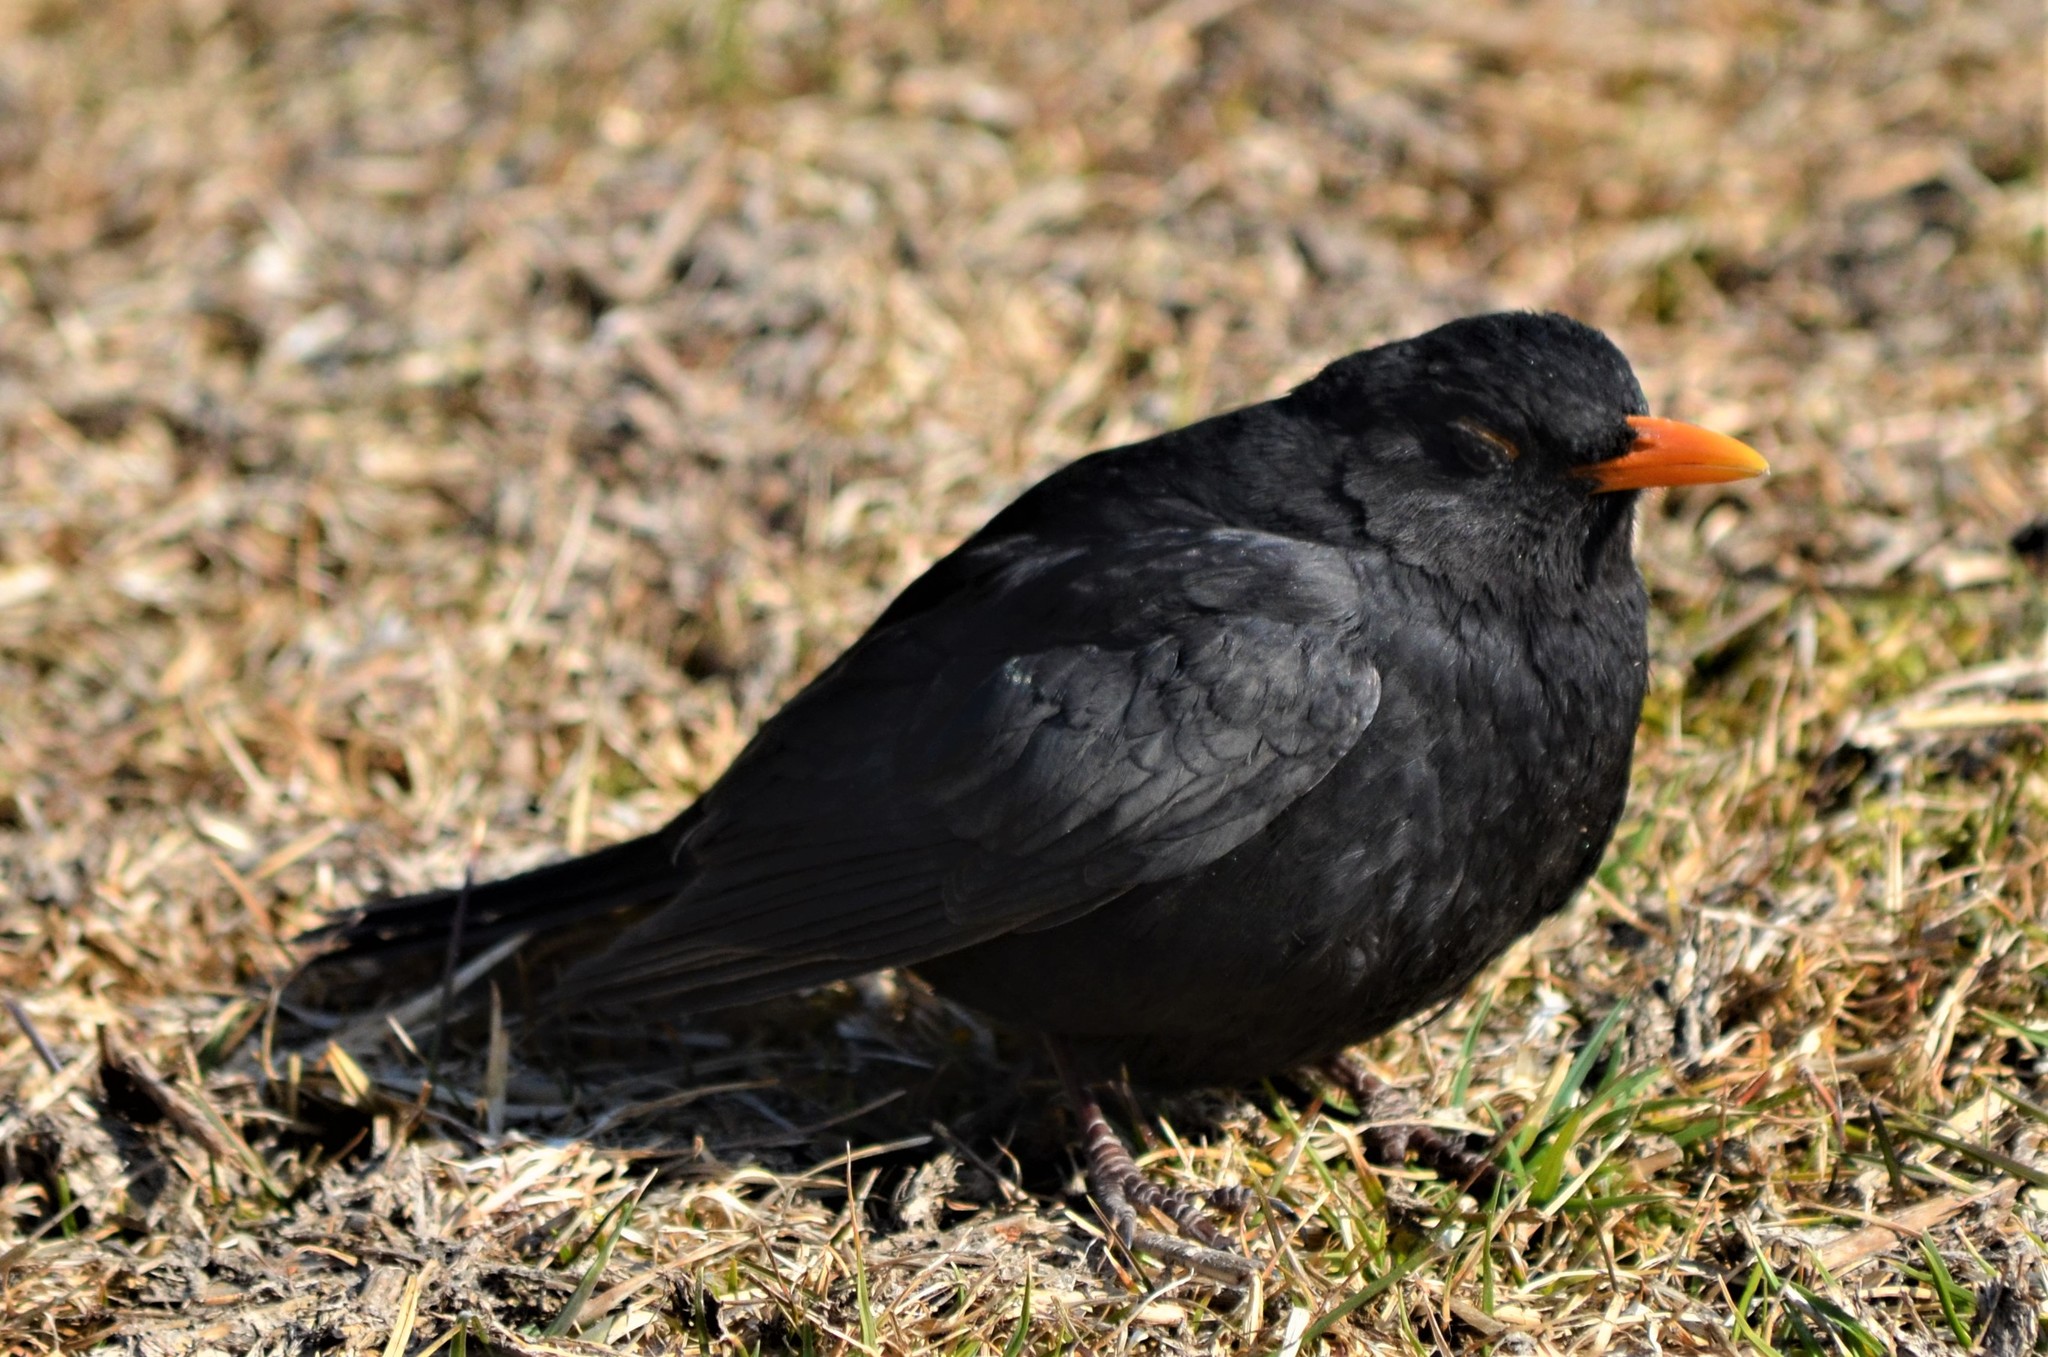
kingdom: Animalia
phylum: Chordata
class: Aves
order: Passeriformes
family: Turdidae
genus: Turdus
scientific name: Turdus merula
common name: Common blackbird
